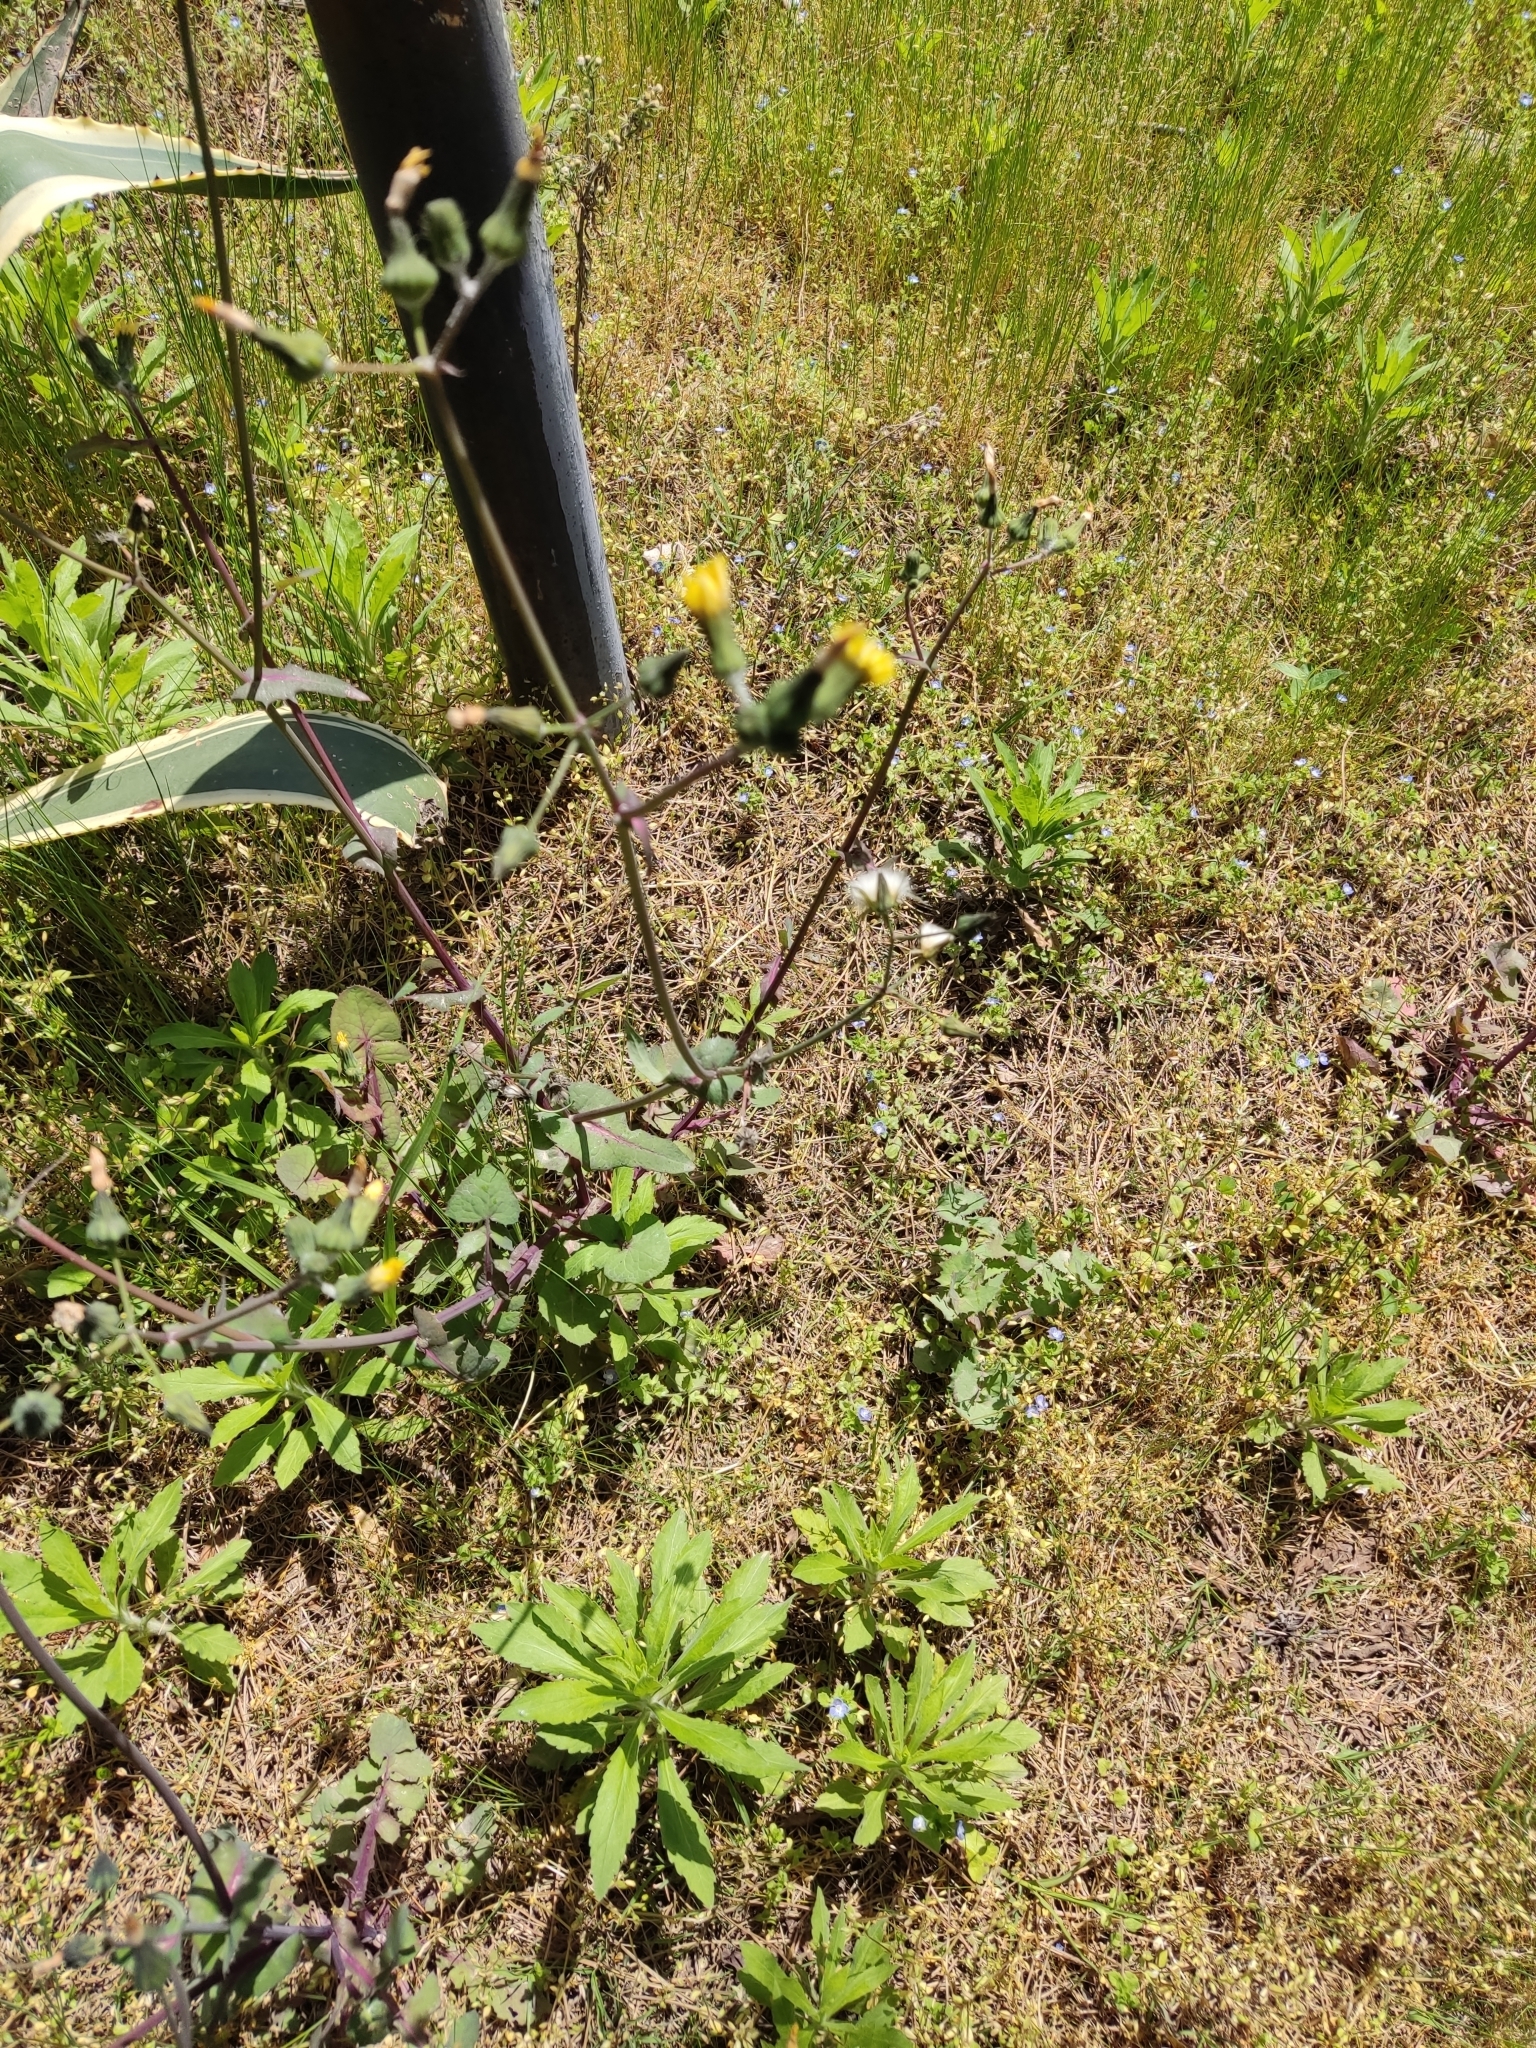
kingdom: Plantae
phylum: Tracheophyta
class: Magnoliopsida
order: Asterales
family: Asteraceae
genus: Sonchus
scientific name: Sonchus oleraceus
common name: Common sowthistle
